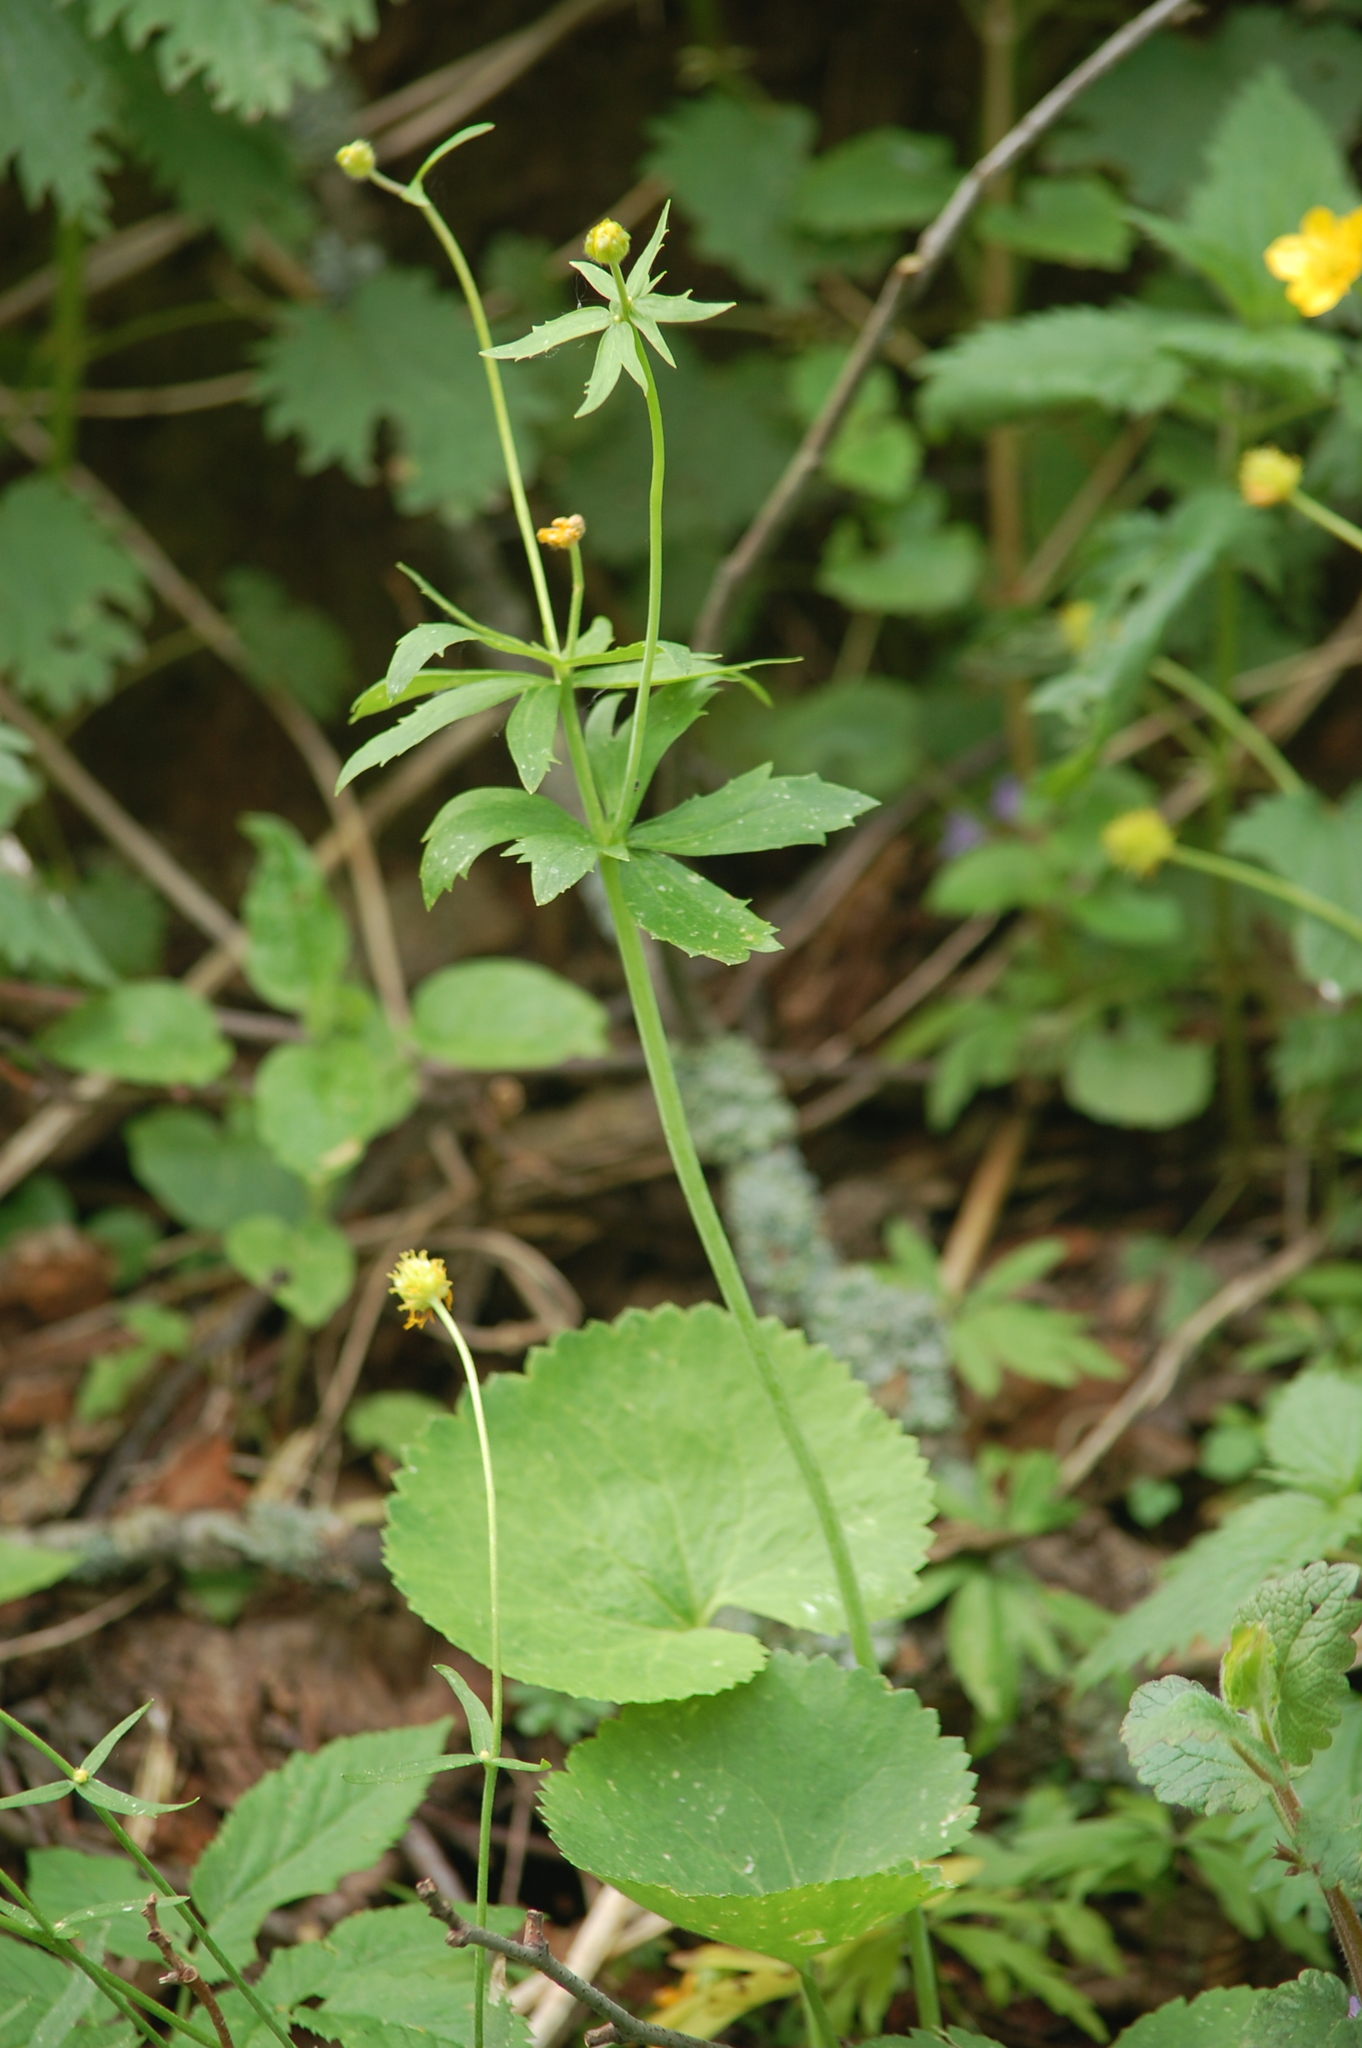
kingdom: Plantae
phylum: Tracheophyta
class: Magnoliopsida
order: Ranunculales
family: Ranunculaceae
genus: Ranunculus
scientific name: Ranunculus cassubicus
